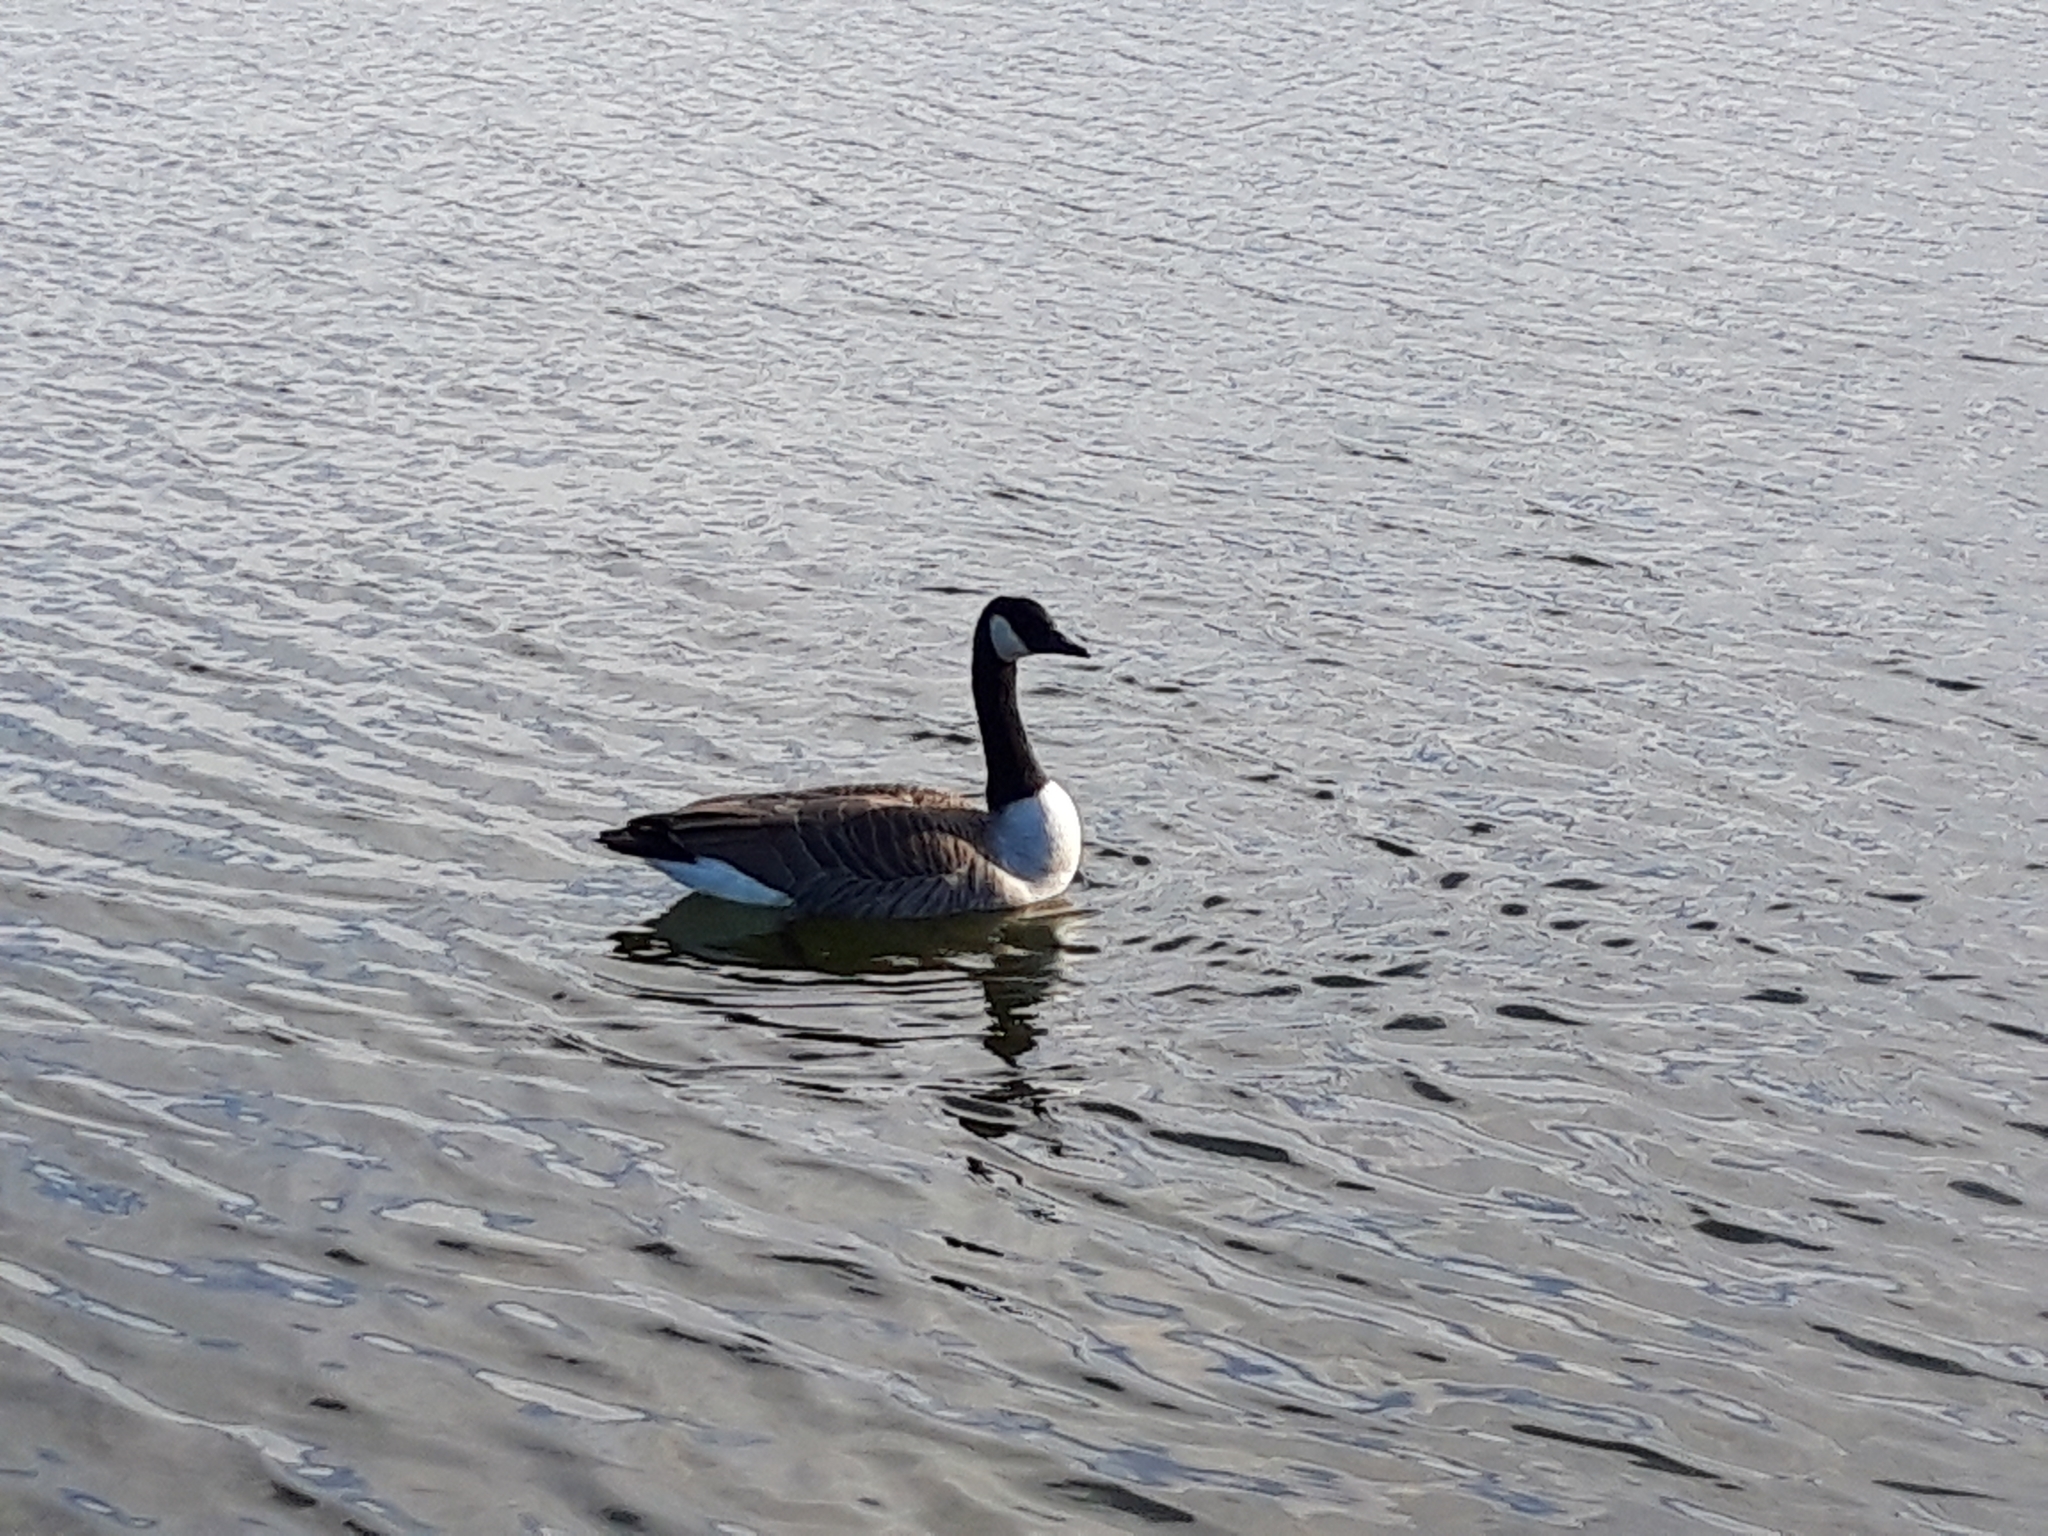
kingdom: Animalia
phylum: Chordata
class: Aves
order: Anseriformes
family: Anatidae
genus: Branta
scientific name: Branta canadensis
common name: Canada goose
